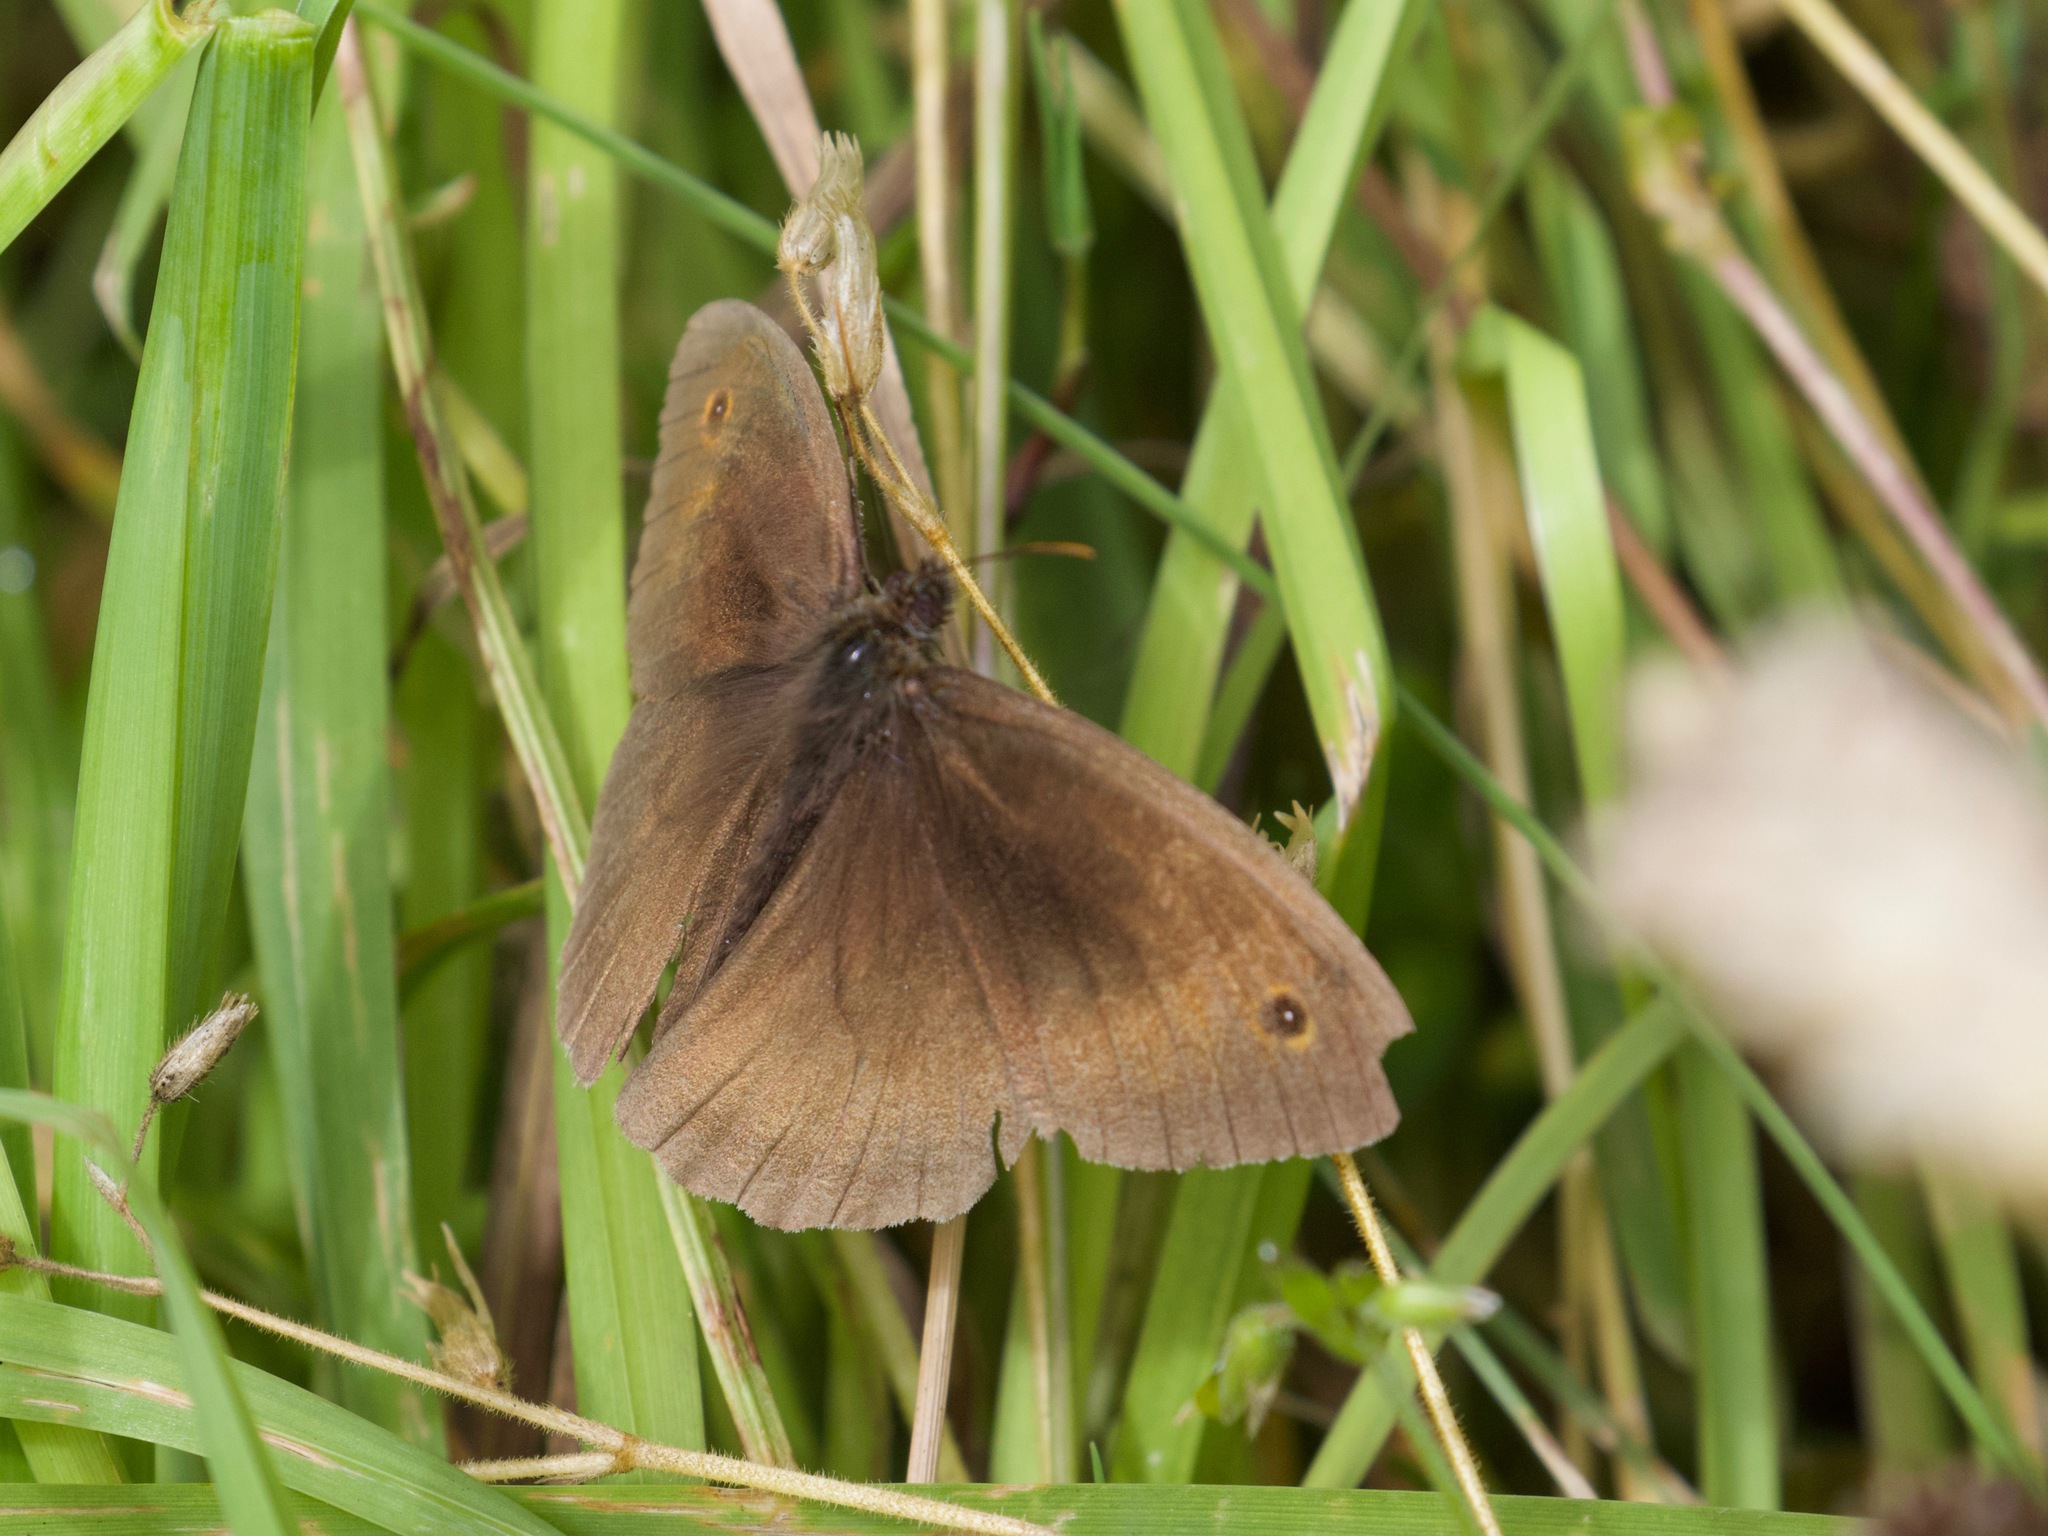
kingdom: Animalia
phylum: Arthropoda
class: Insecta
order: Lepidoptera
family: Nymphalidae
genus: Maniola
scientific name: Maniola jurtina
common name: Meadow brown
